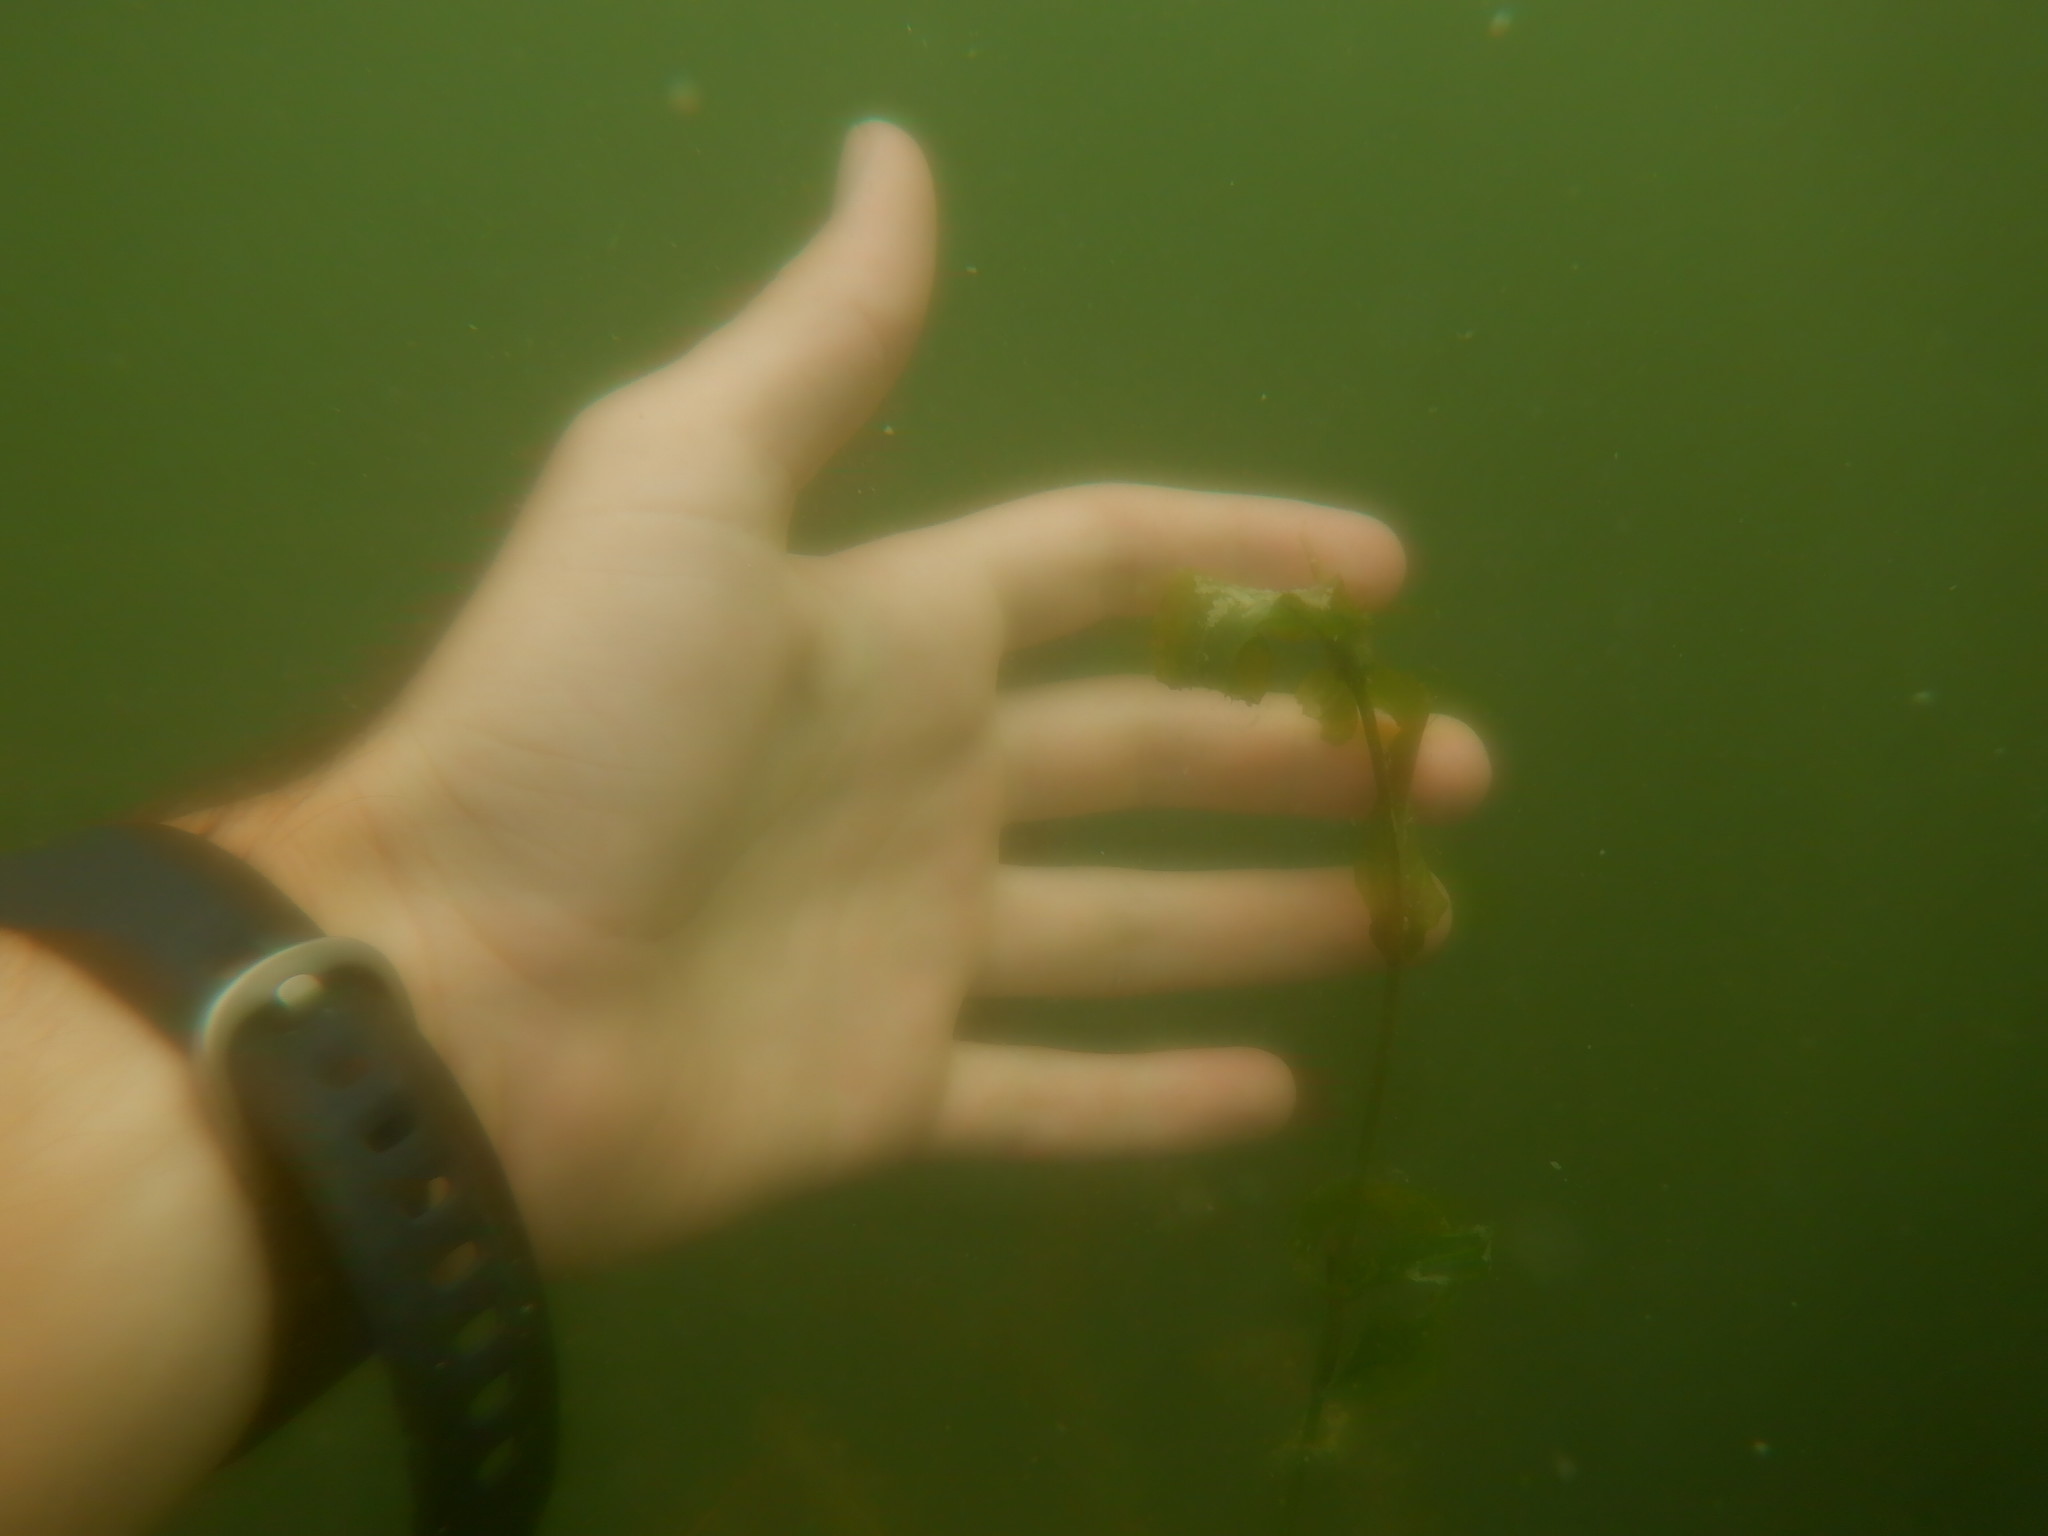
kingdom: Plantae
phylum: Tracheophyta
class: Liliopsida
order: Alismatales
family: Potamogetonaceae
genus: Potamogeton
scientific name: Potamogeton richardsonii
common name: Richardson's pondweed
